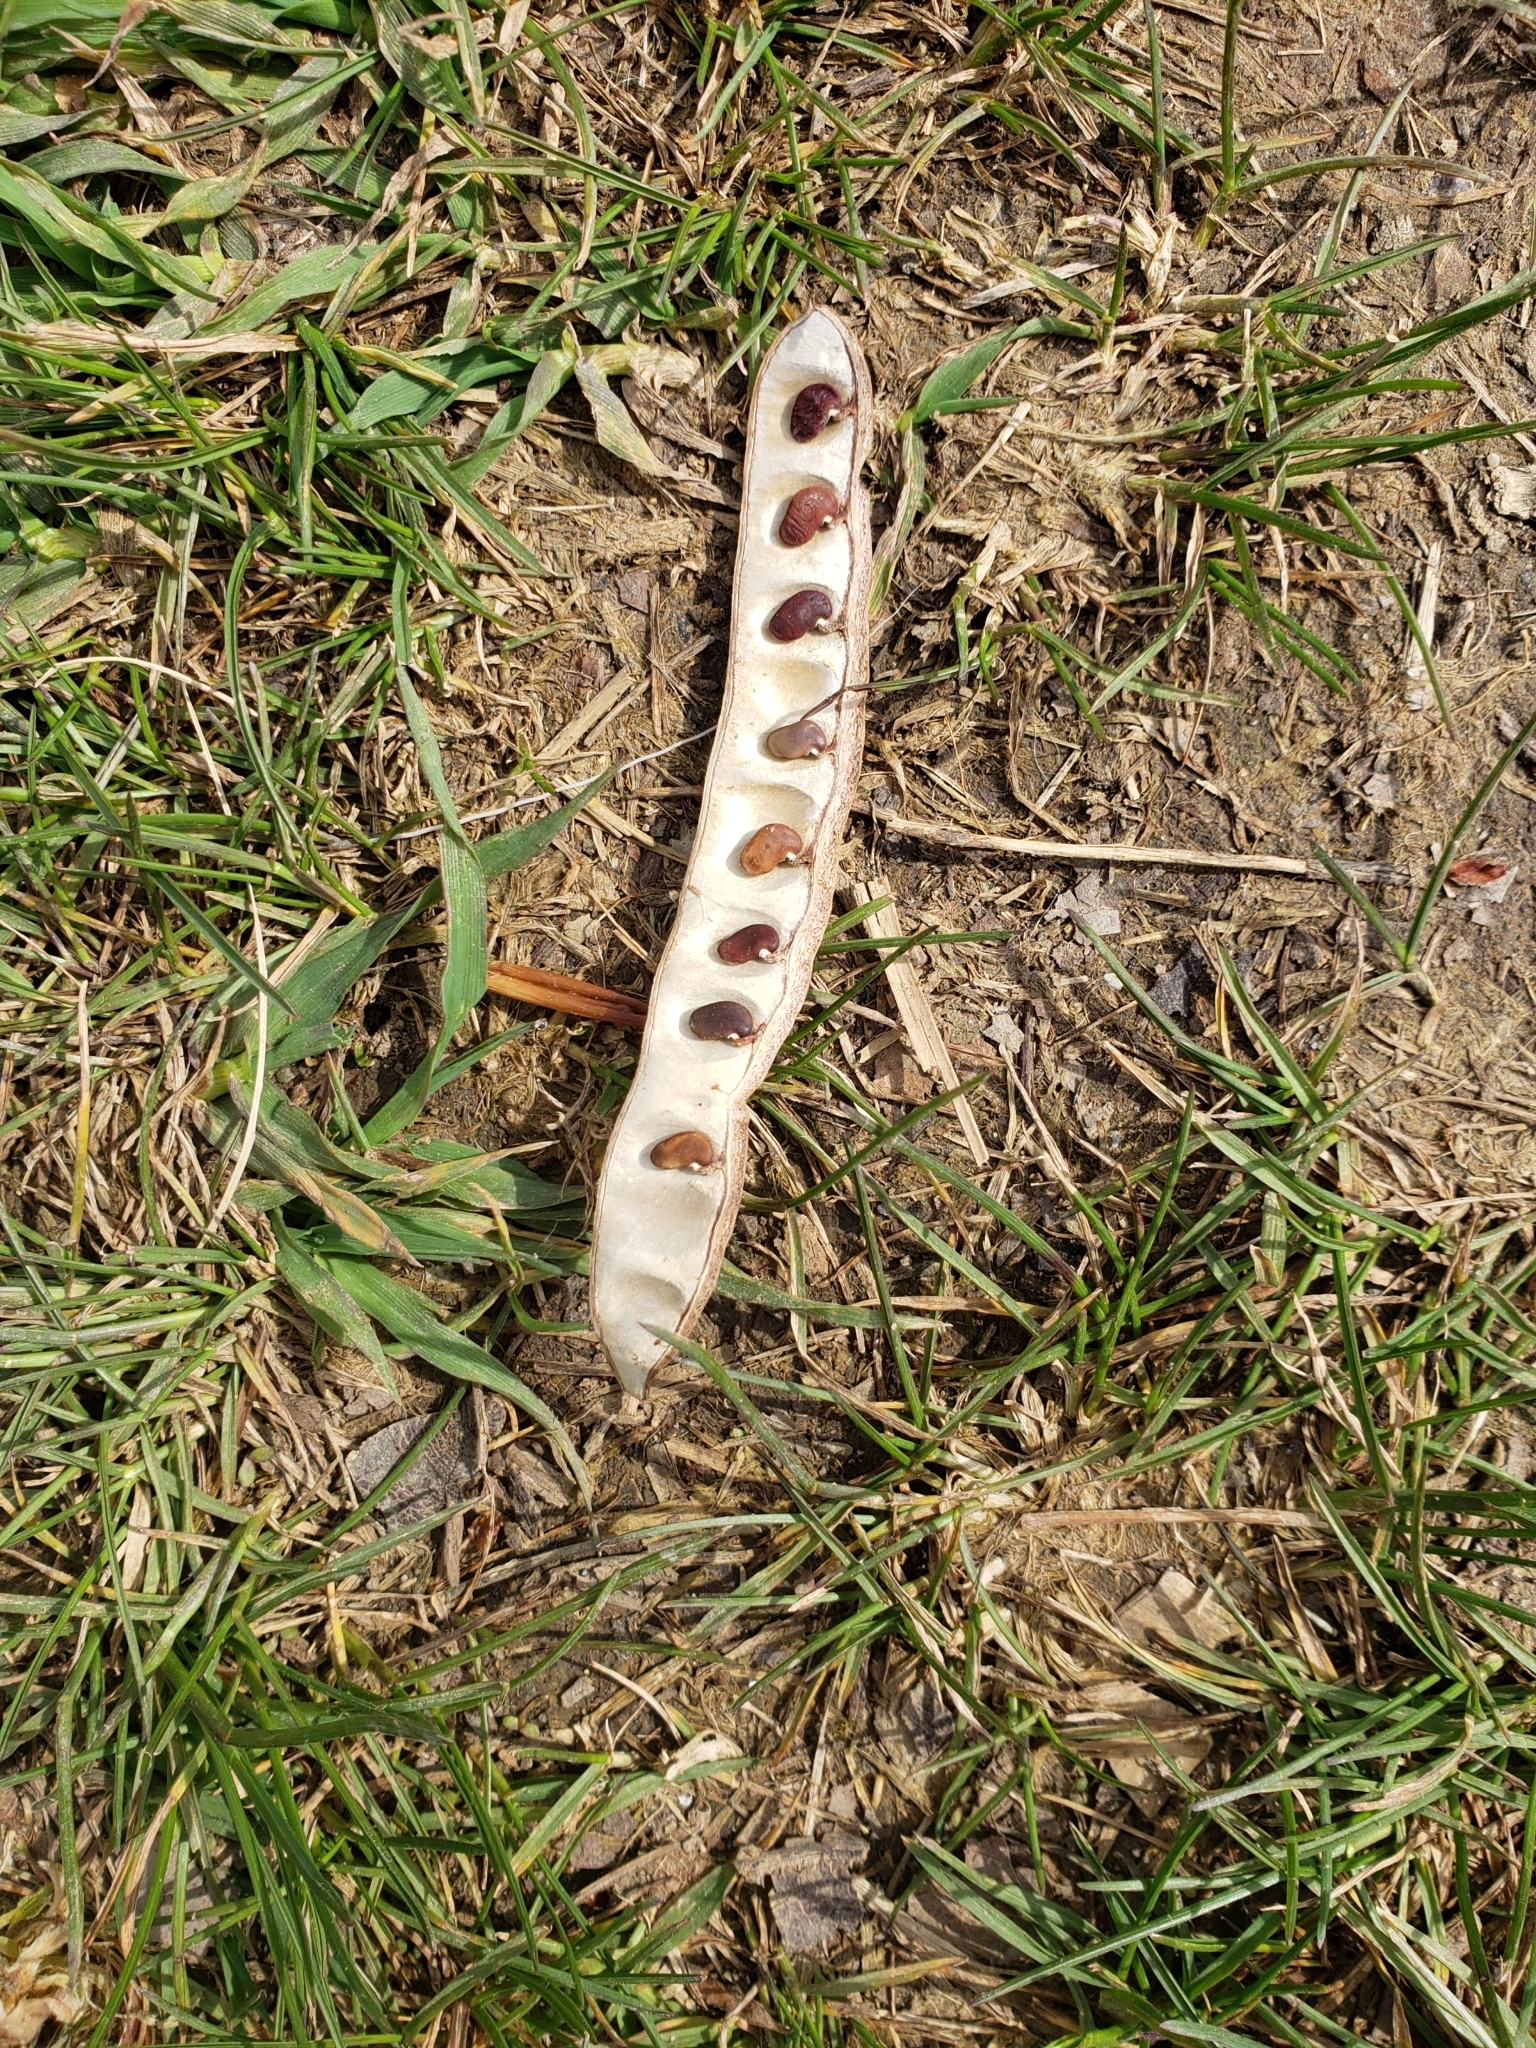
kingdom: Plantae
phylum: Tracheophyta
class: Magnoliopsida
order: Fabales
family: Fabaceae
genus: Robinia
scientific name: Robinia pseudoacacia
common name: Black locust
